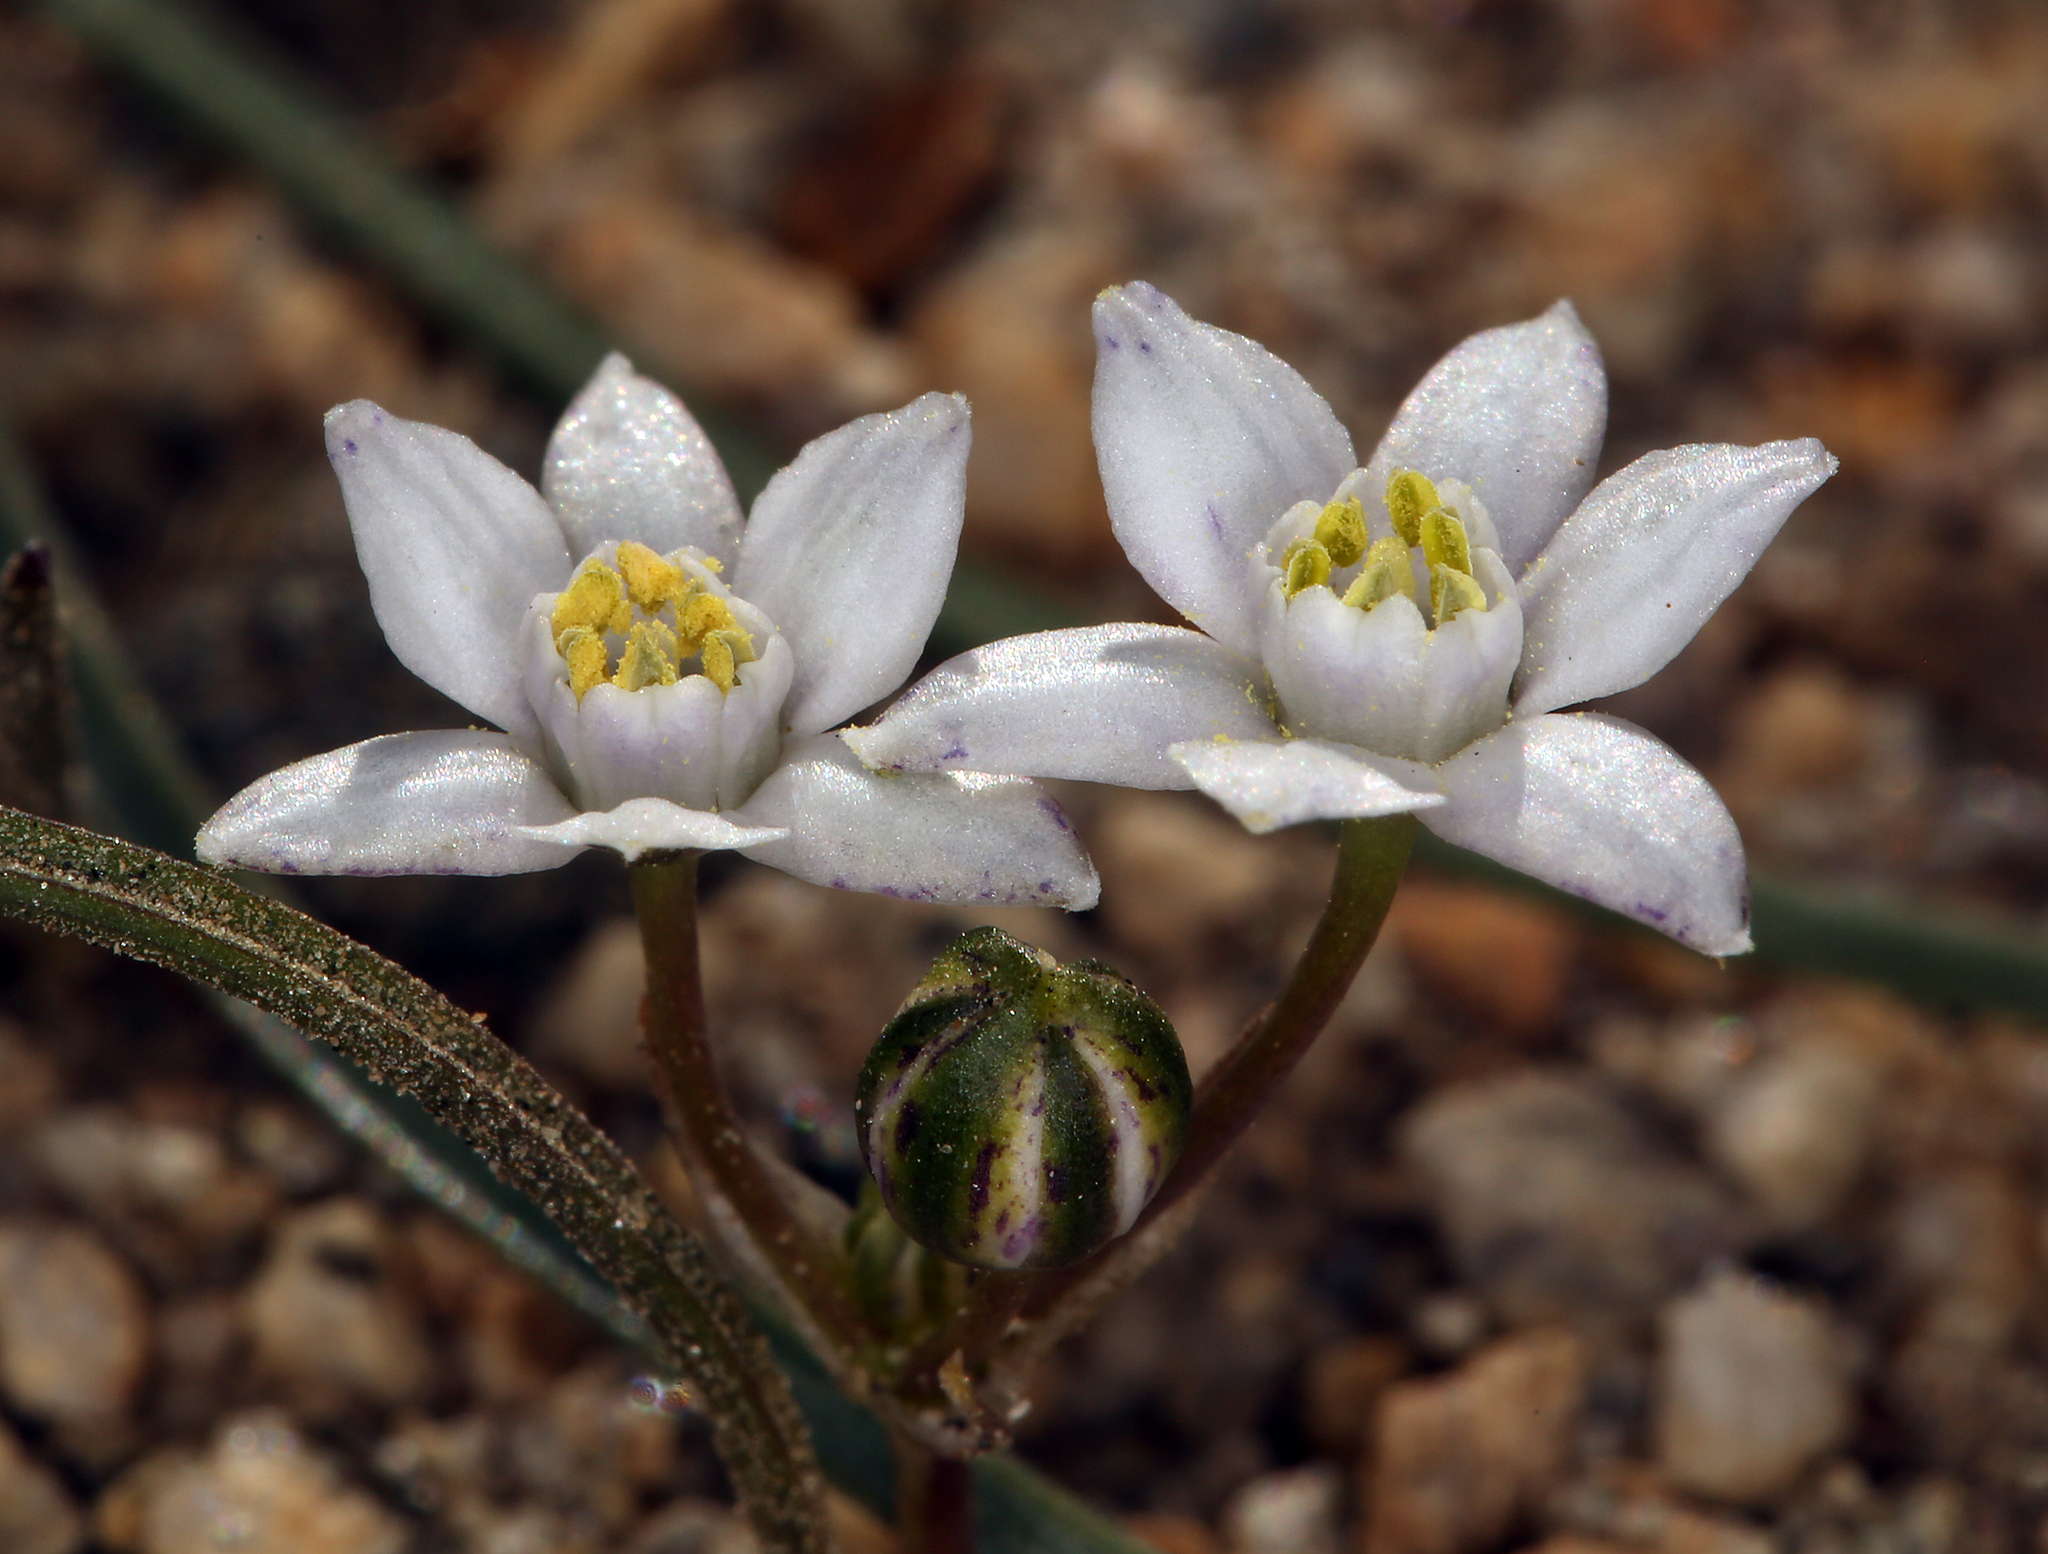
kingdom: Plantae
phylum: Tracheophyta
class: Liliopsida
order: Asparagales
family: Asparagaceae
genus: Muilla
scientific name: Muilla coronata
